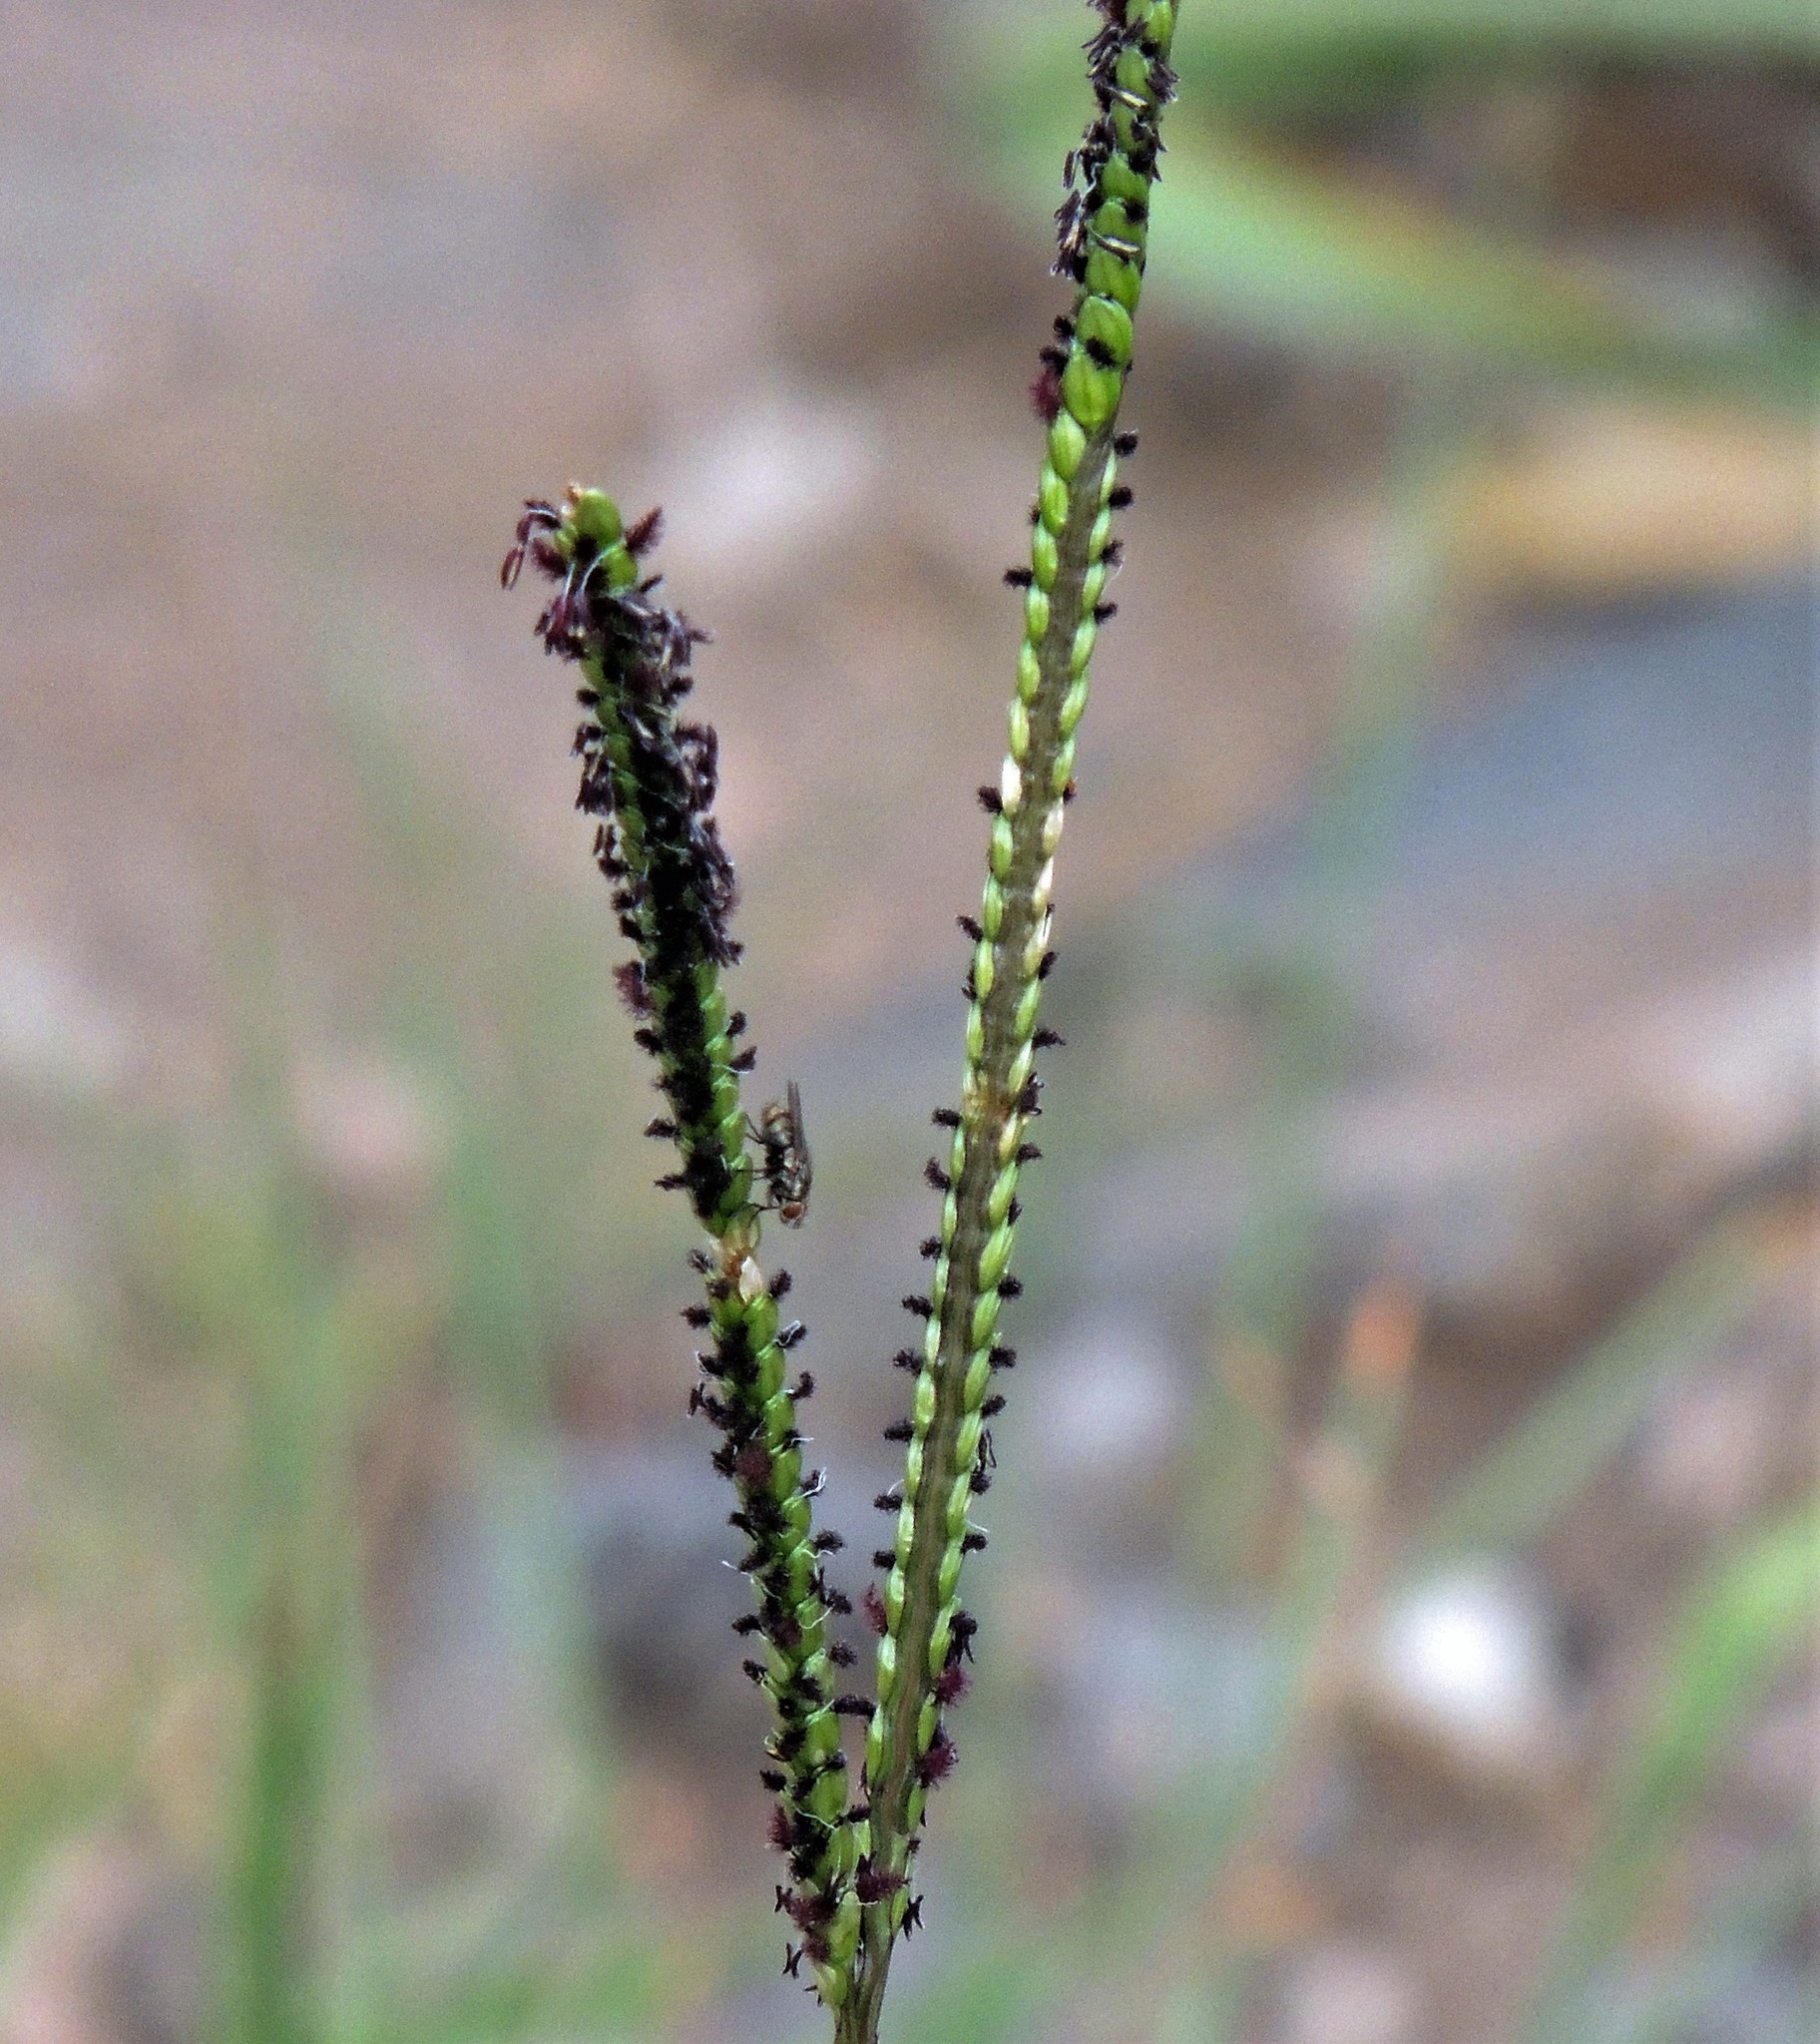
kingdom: Plantae
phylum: Tracheophyta
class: Liliopsida
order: Poales
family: Poaceae
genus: Paspalum
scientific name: Paspalum notatum
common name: Bahiagrass
